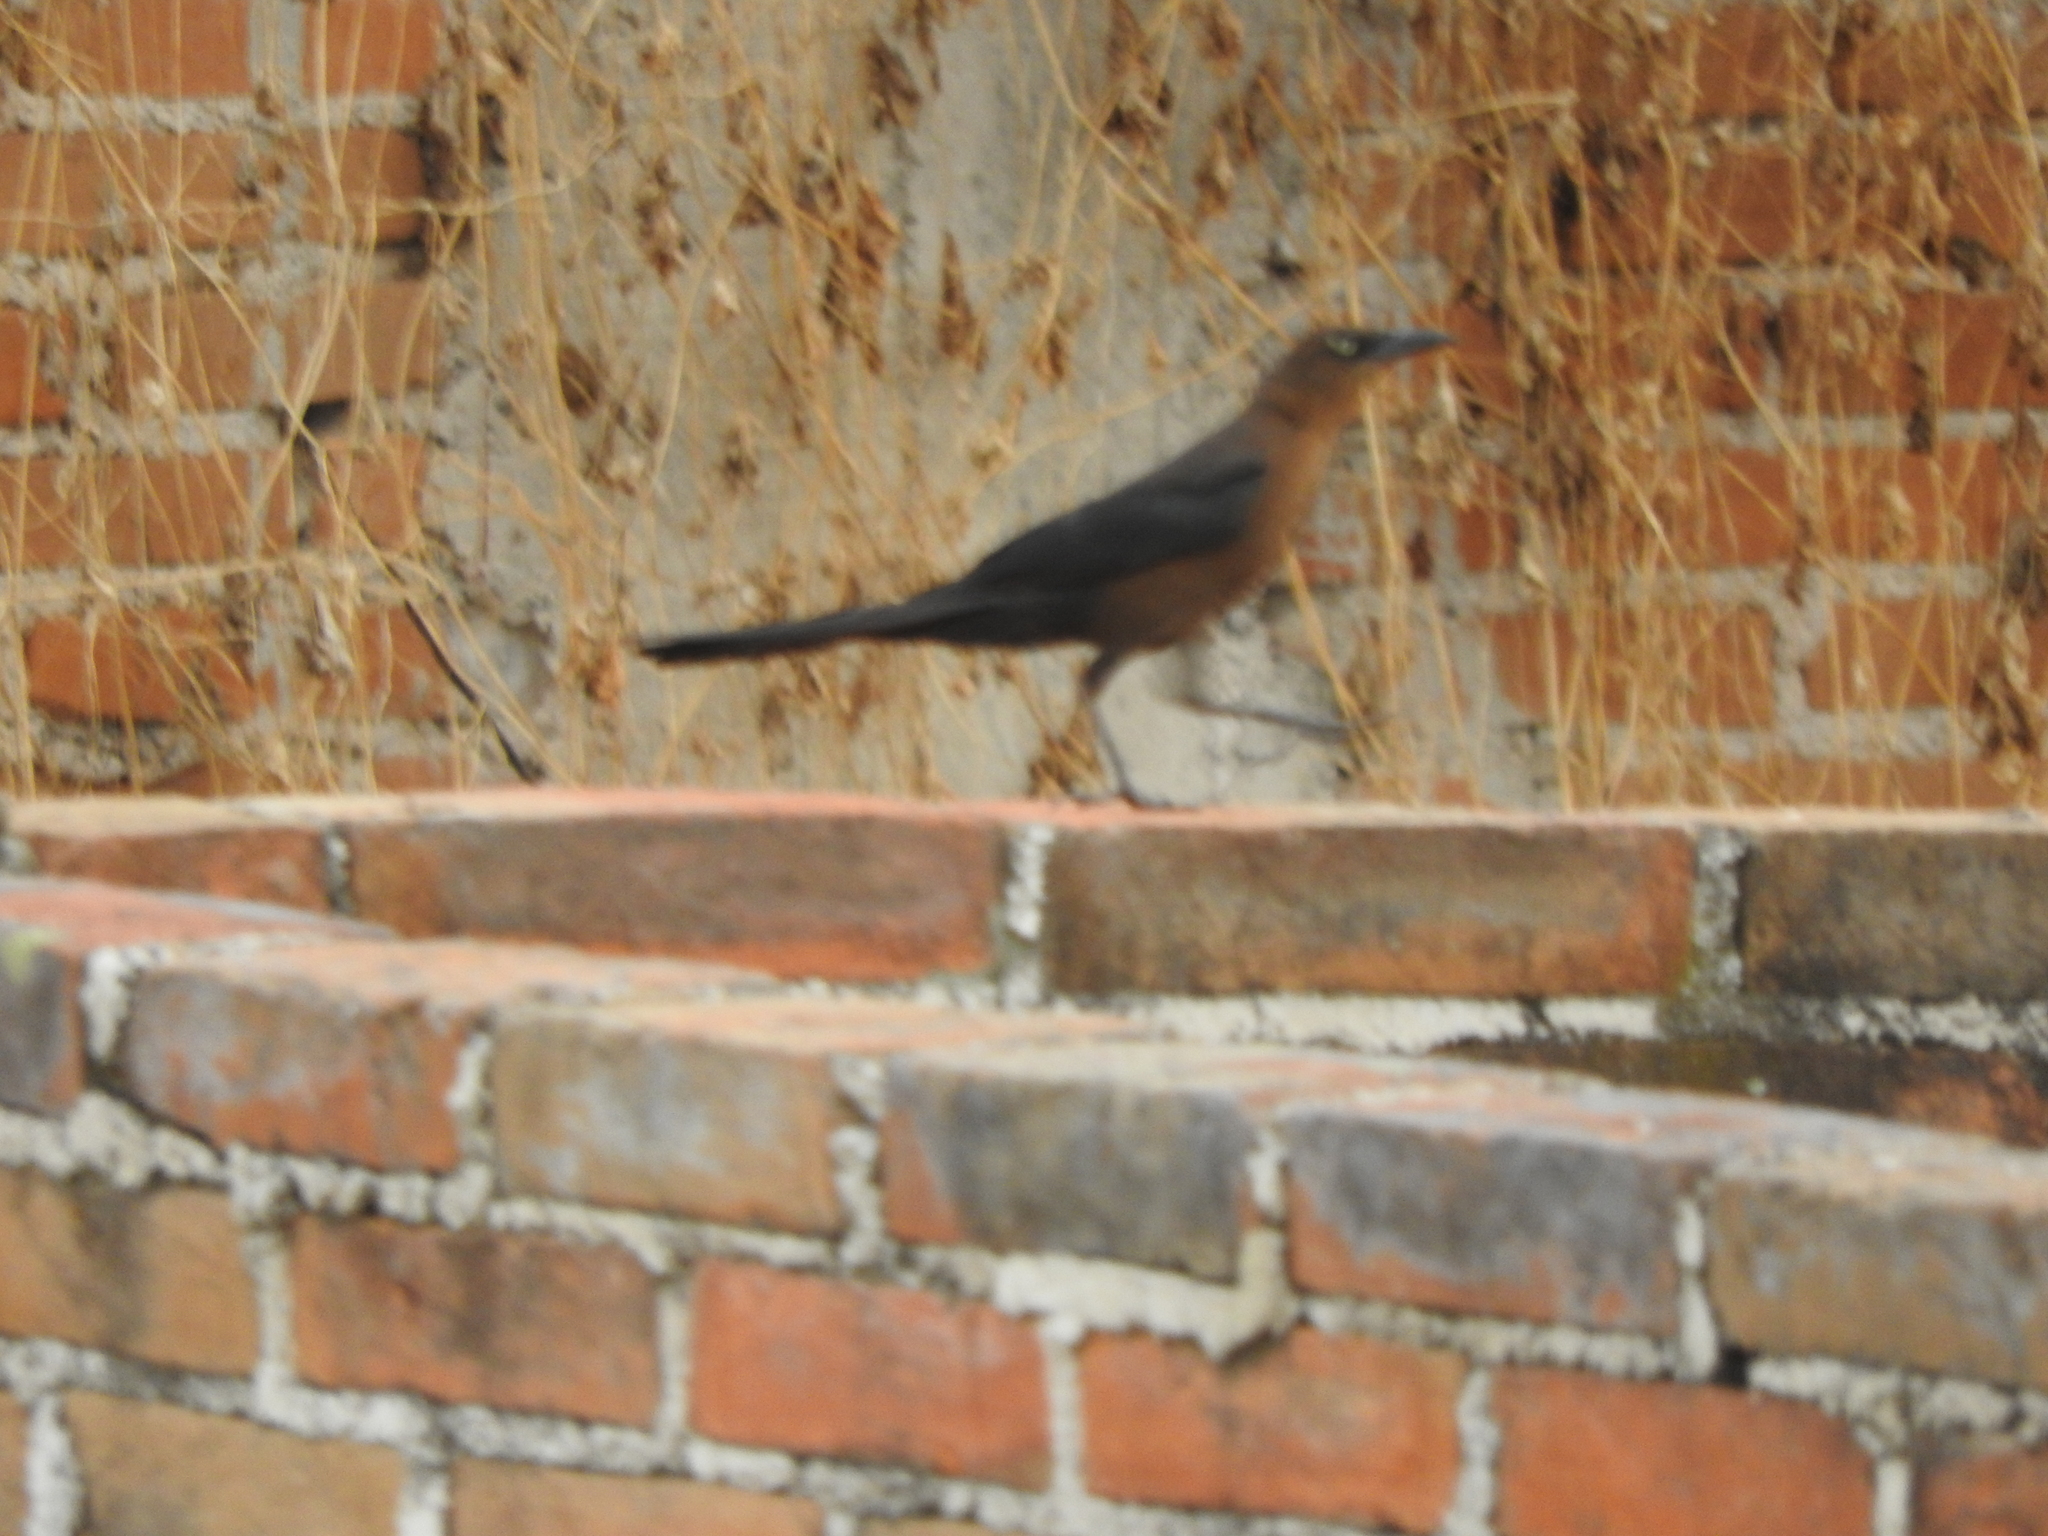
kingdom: Animalia
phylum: Chordata
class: Aves
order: Passeriformes
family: Icteridae
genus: Quiscalus
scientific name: Quiscalus mexicanus
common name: Great-tailed grackle
